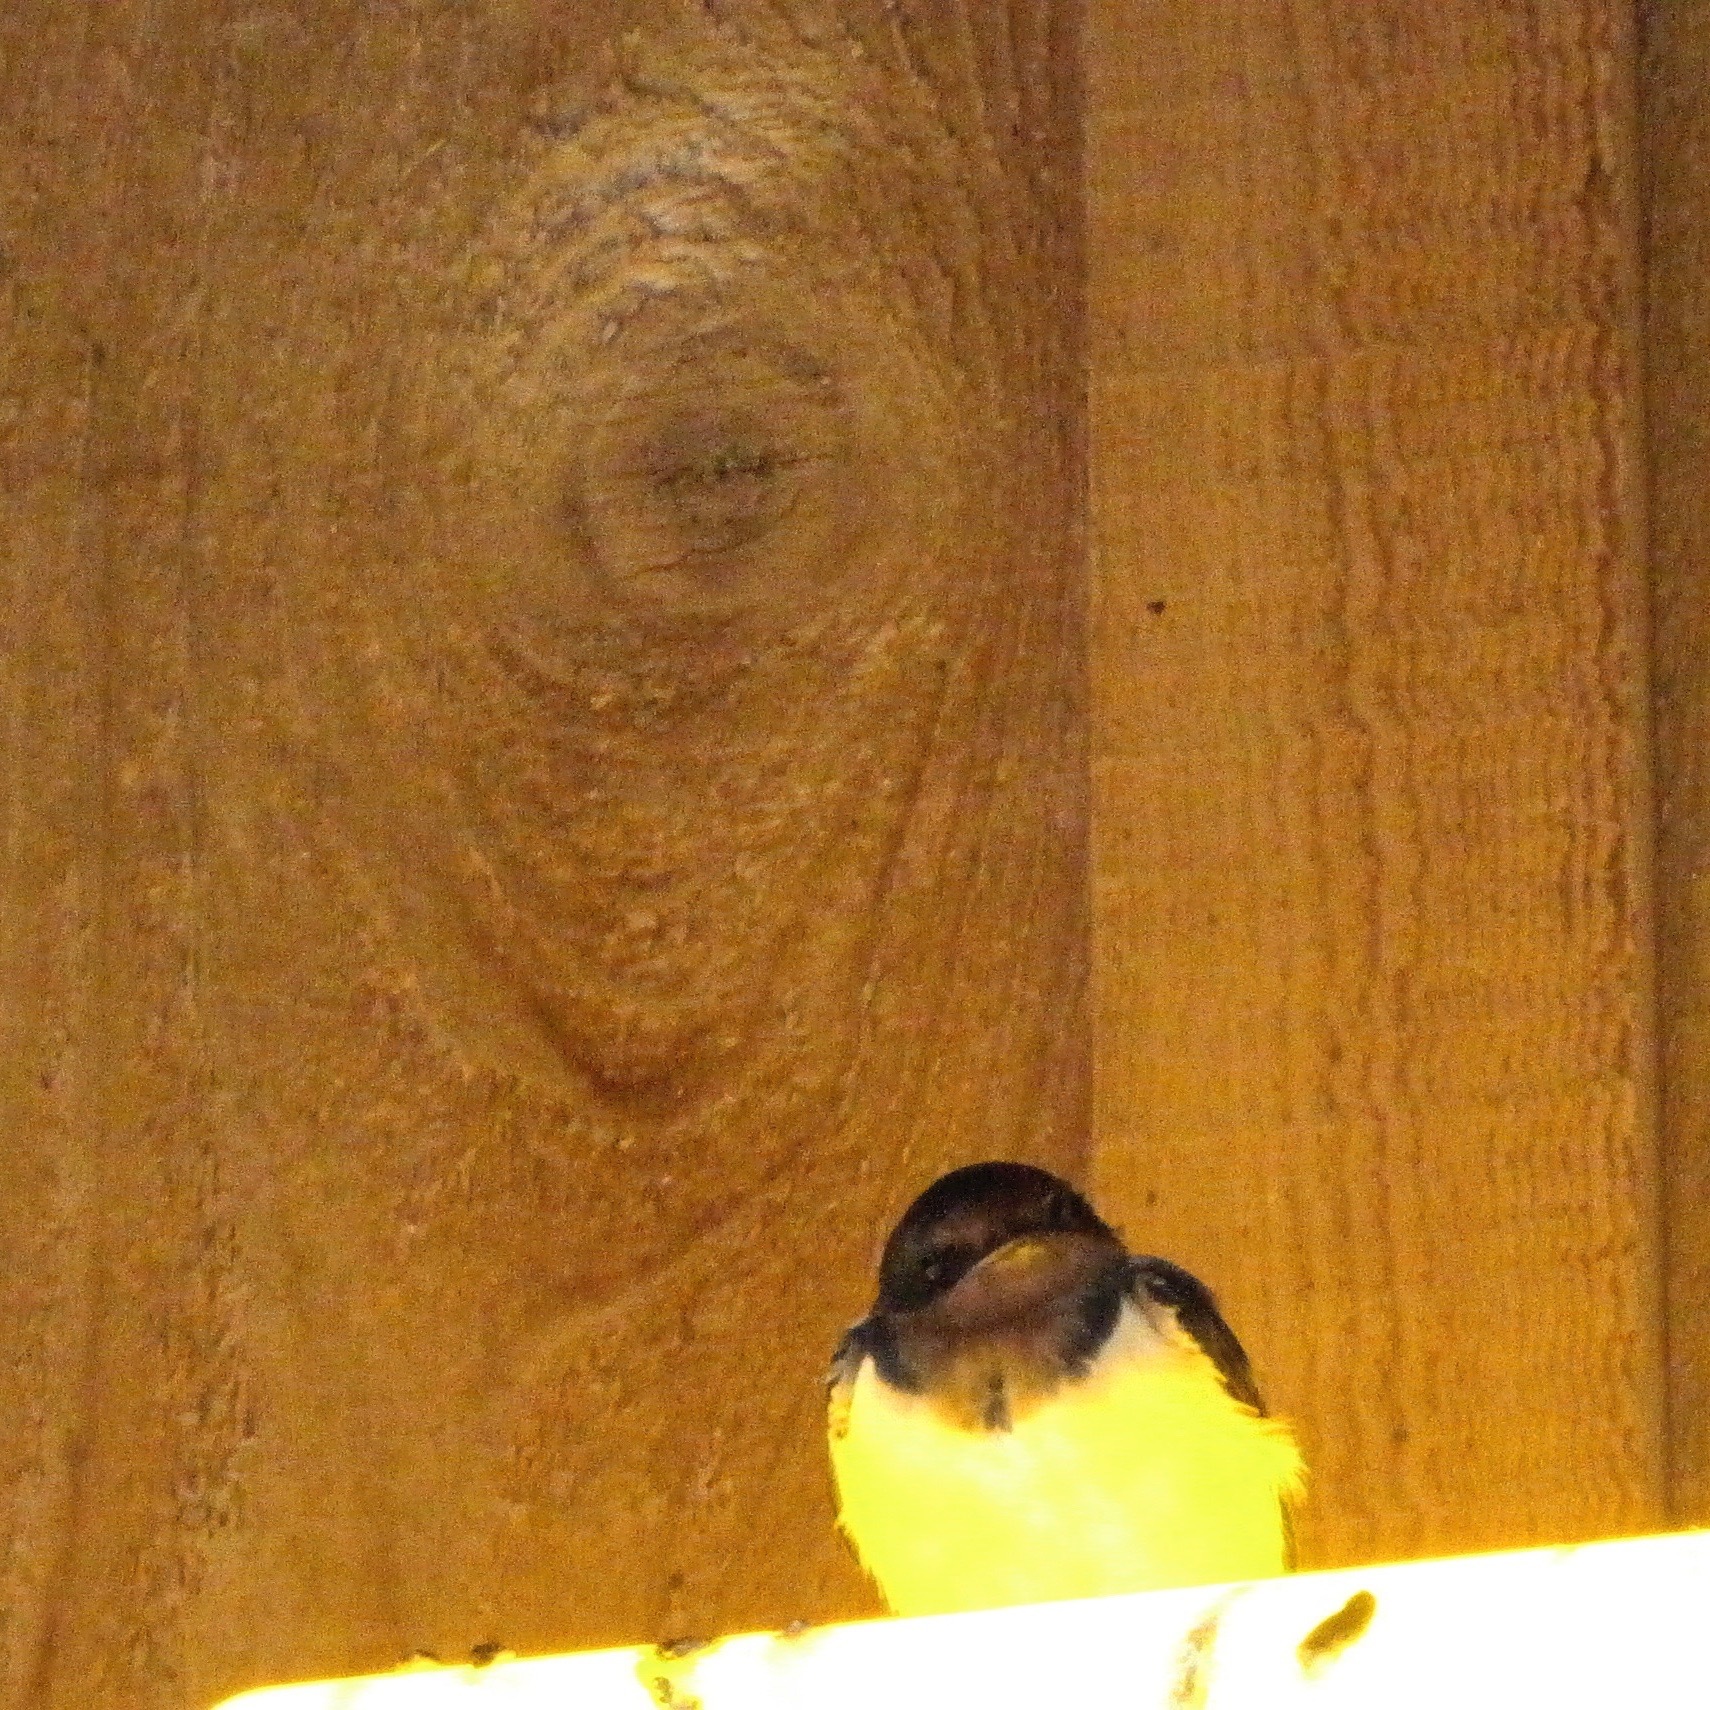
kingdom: Animalia
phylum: Chordata
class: Aves
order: Passeriformes
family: Hirundinidae
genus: Hirundo
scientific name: Hirundo rustica
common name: Barn swallow
